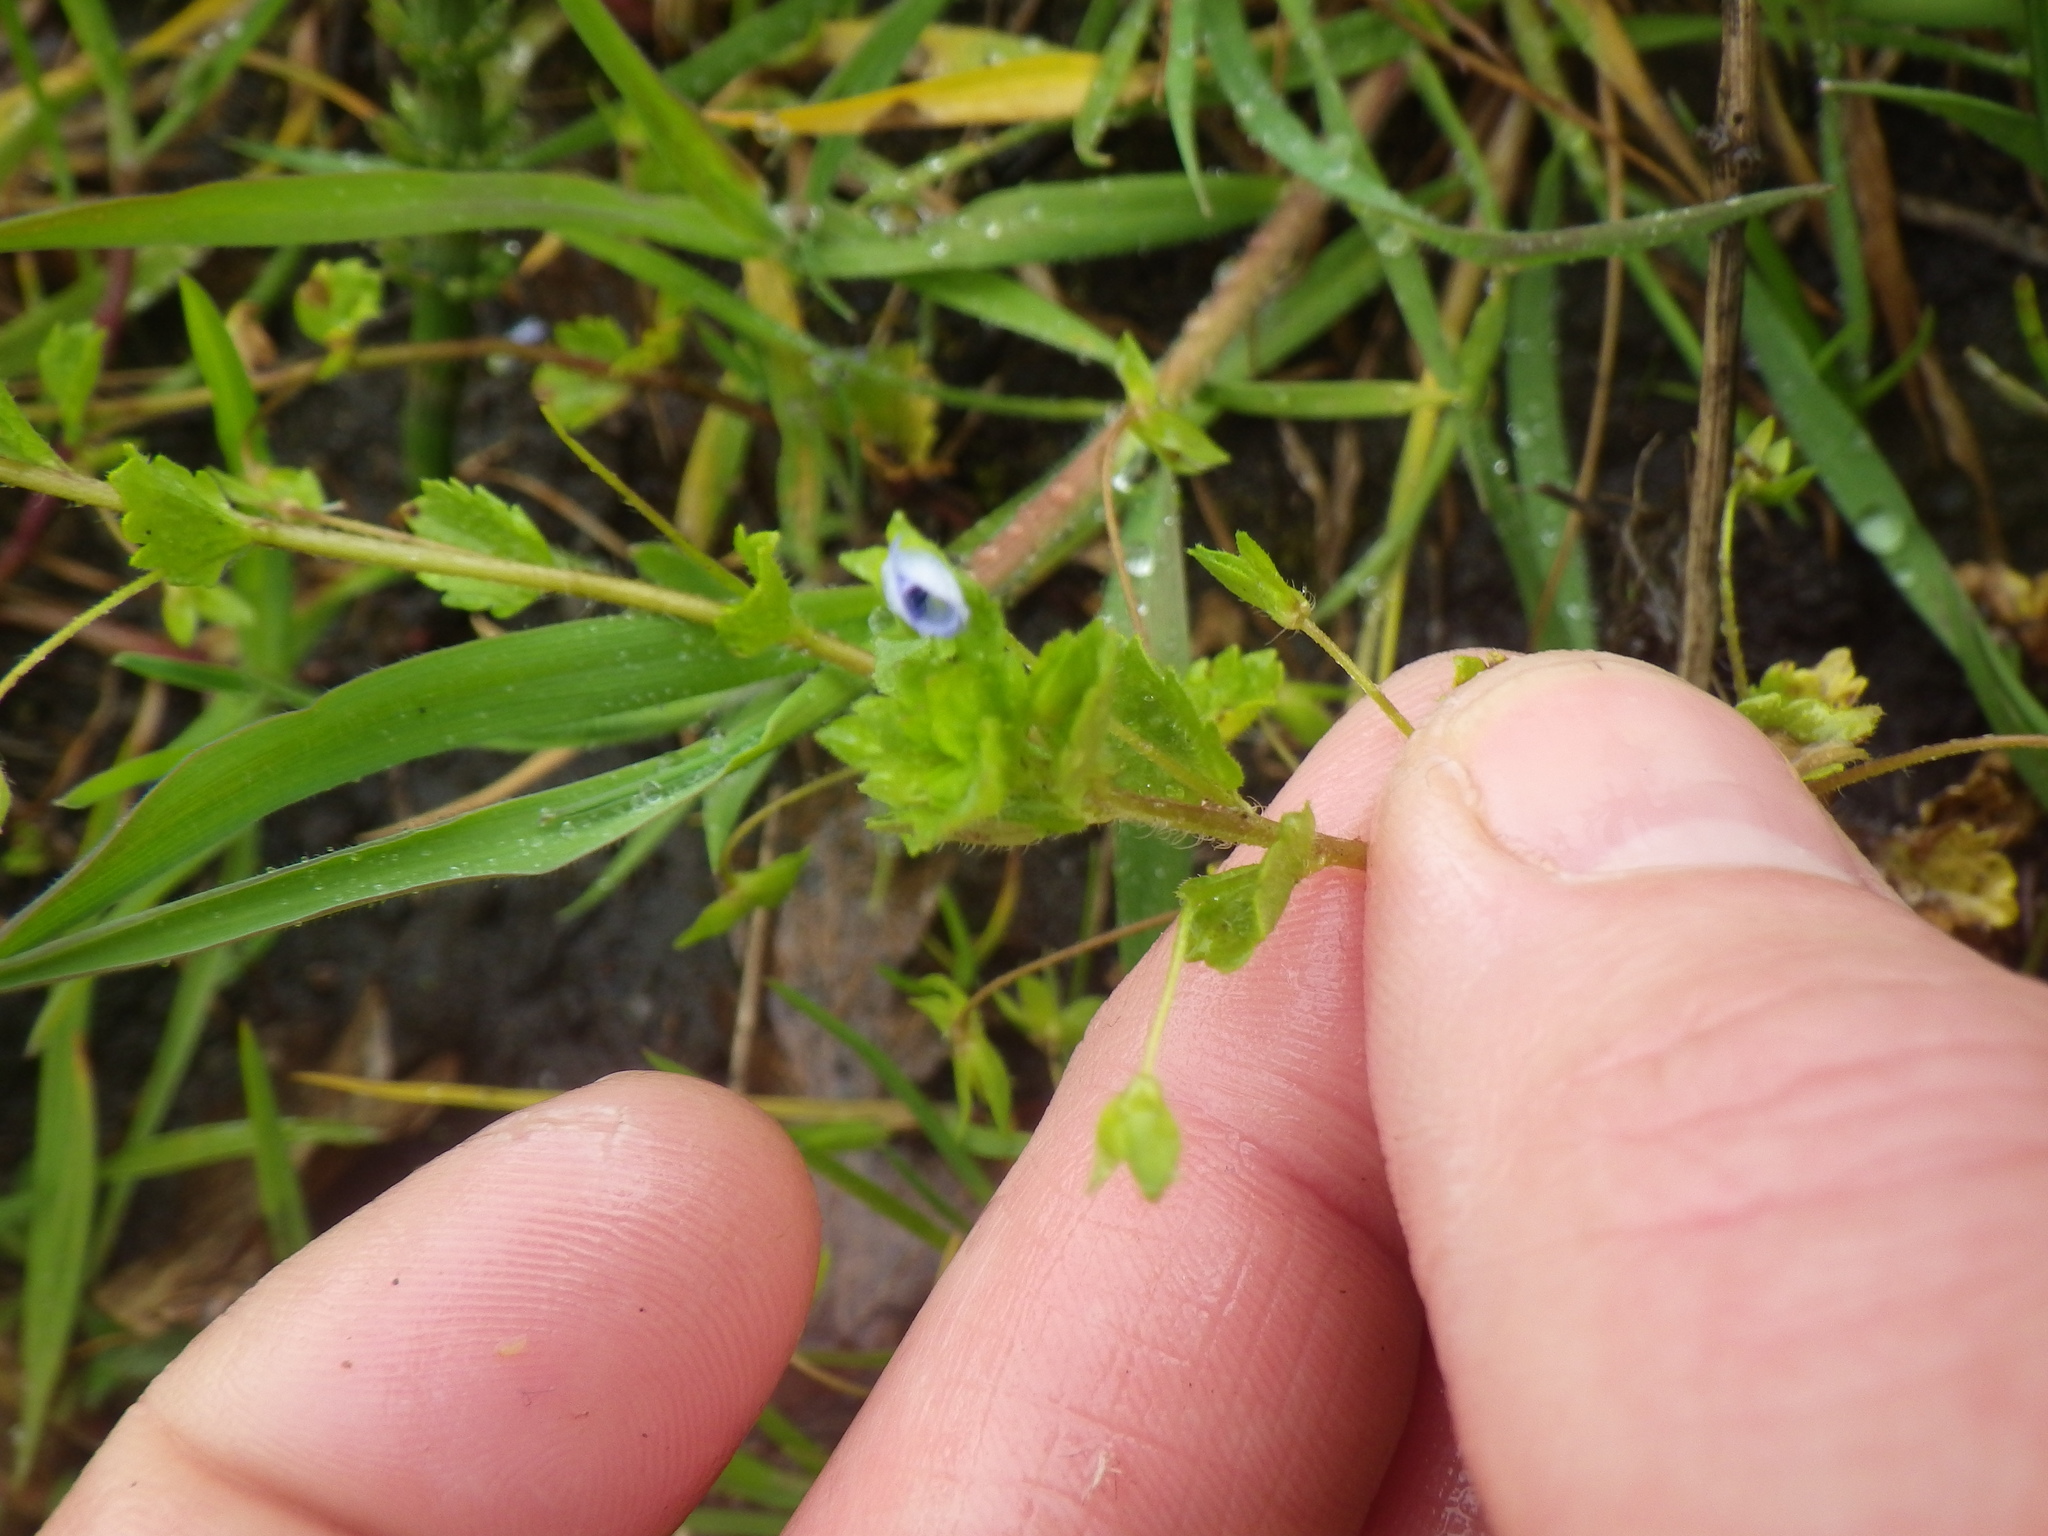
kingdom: Plantae
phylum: Tracheophyta
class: Magnoliopsida
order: Lamiales
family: Plantaginaceae
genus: Veronica
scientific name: Veronica persica
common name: Common field-speedwell
